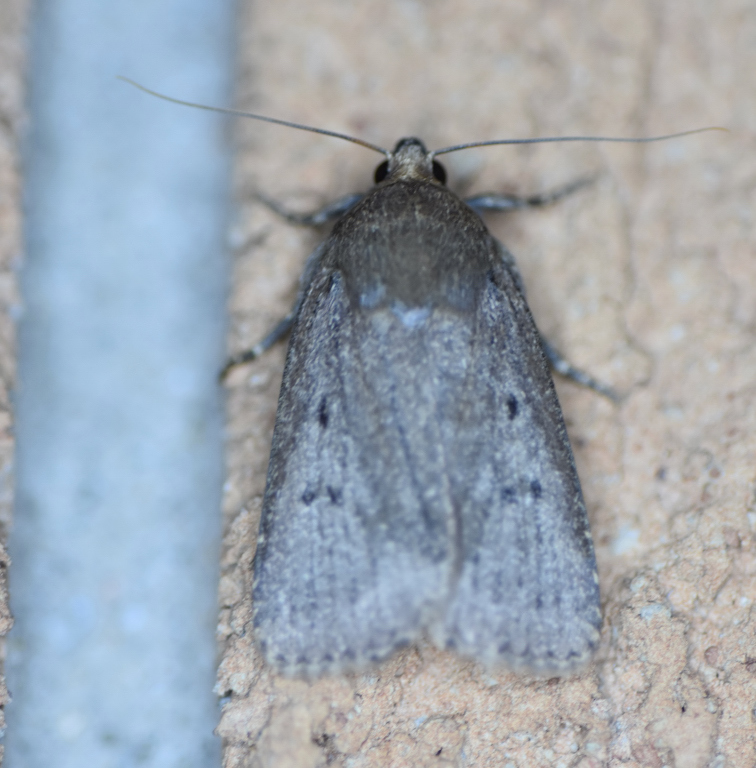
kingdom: Animalia
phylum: Arthropoda
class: Insecta
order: Lepidoptera
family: Noctuidae
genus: Amphipyra
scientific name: Amphipyra tragopoginis
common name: Mouse moth
